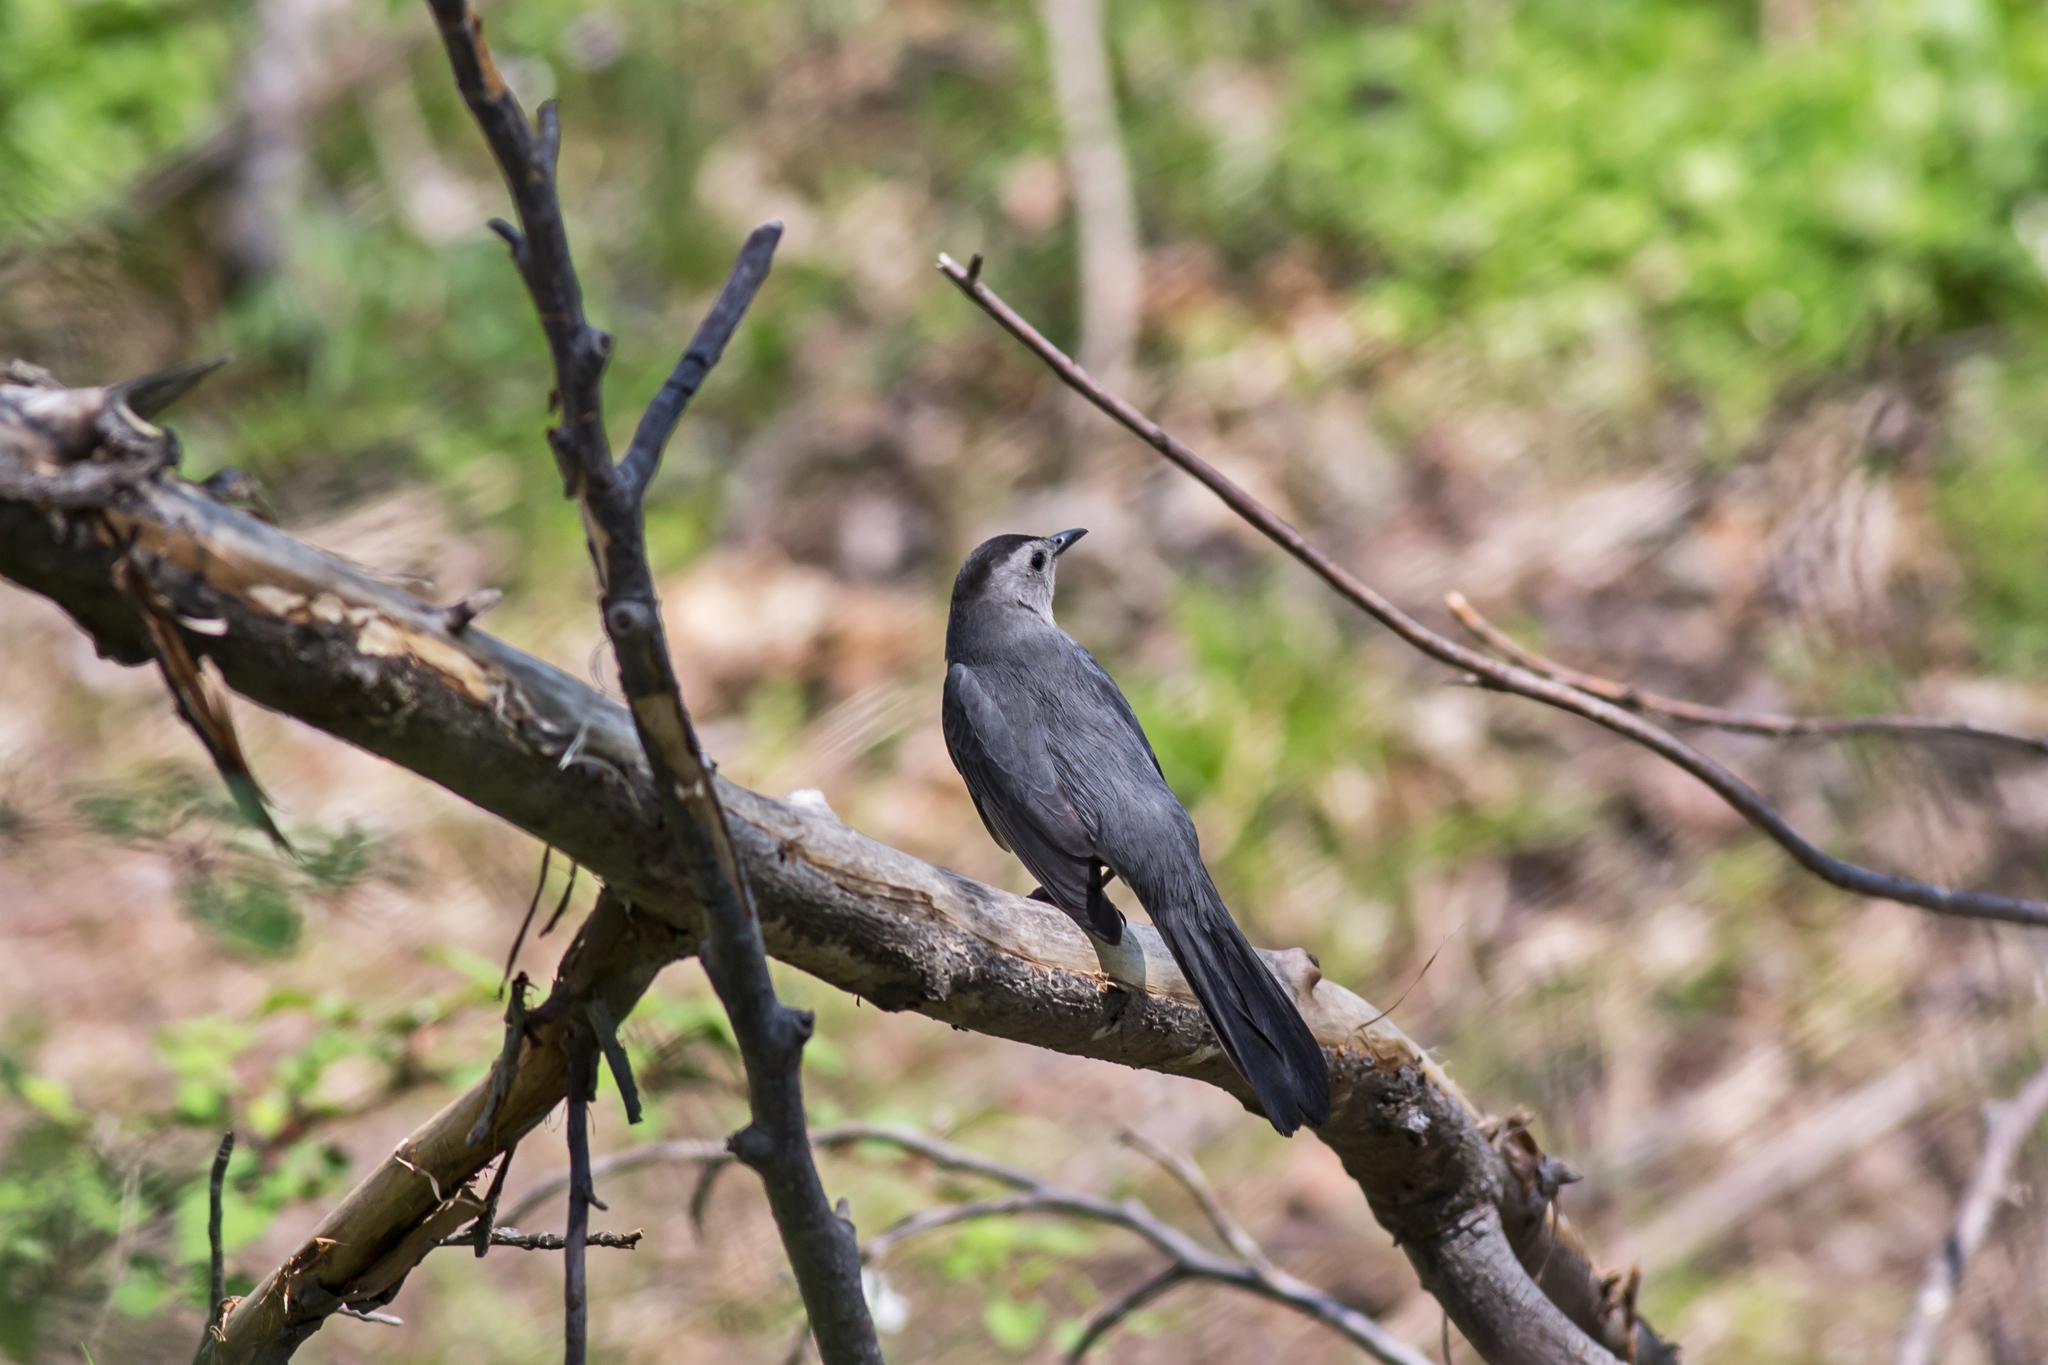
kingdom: Animalia
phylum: Chordata
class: Aves
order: Passeriformes
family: Mimidae
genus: Dumetella
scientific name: Dumetella carolinensis
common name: Gray catbird
